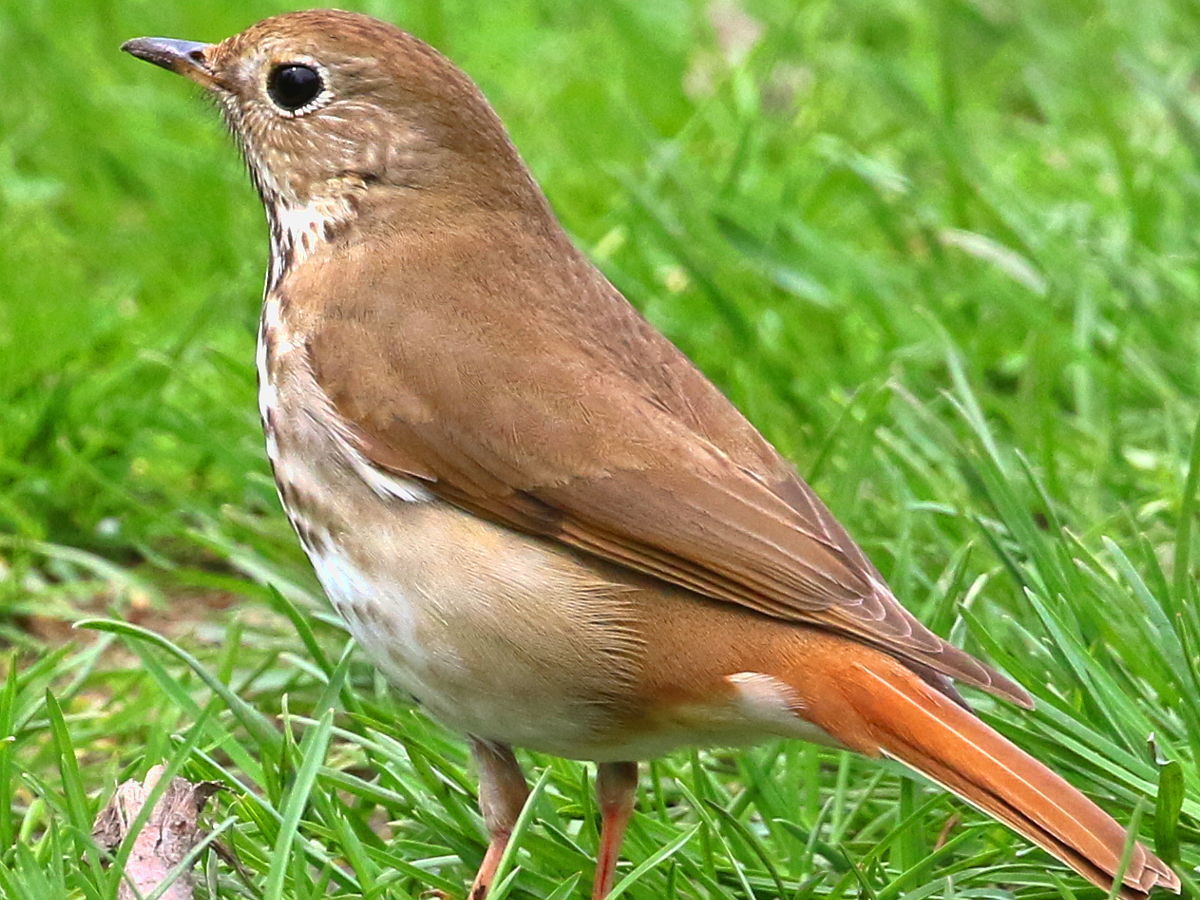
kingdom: Animalia
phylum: Chordata
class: Aves
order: Passeriformes
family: Turdidae
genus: Catharus
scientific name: Catharus guttatus
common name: Hermit thrush
